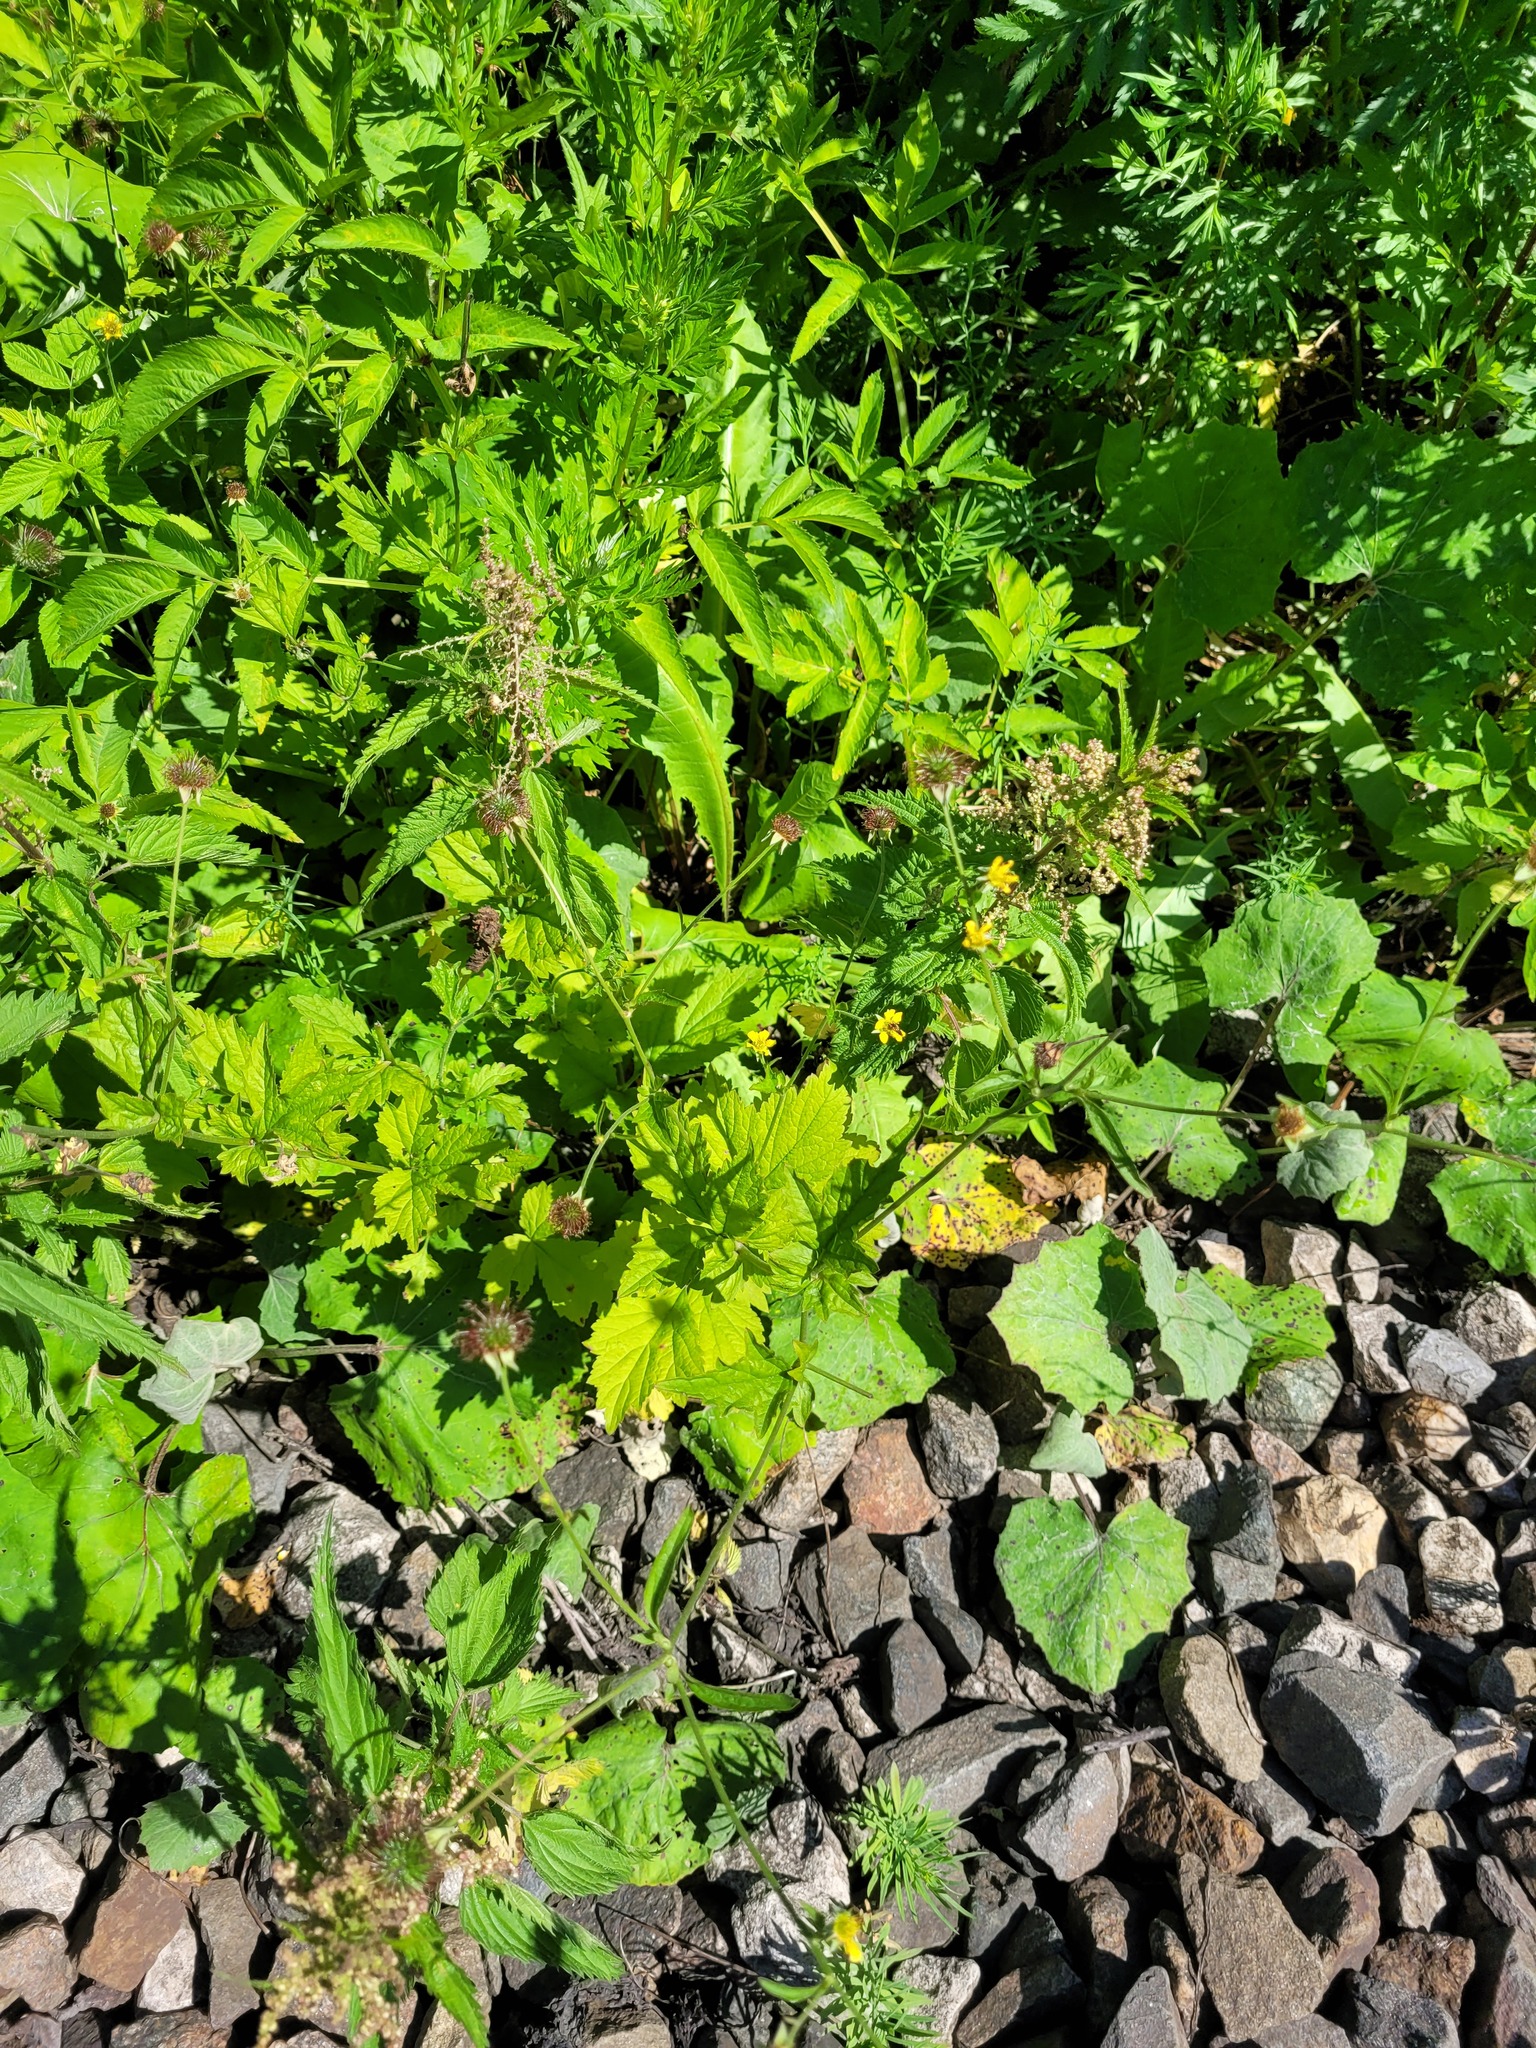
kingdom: Plantae
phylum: Tracheophyta
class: Magnoliopsida
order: Rosales
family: Rosaceae
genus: Geum
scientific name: Geum urbanum
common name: Wood avens
